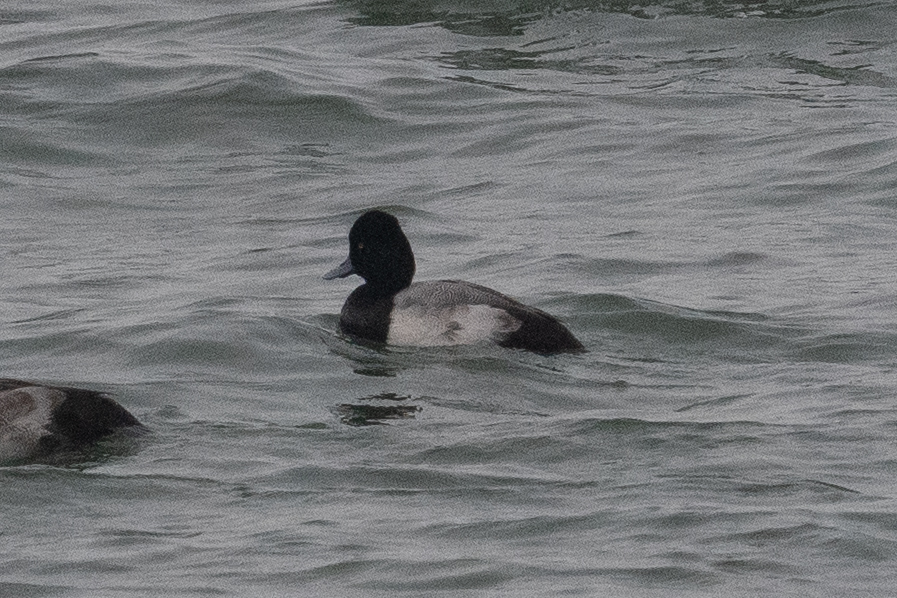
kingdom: Animalia
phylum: Chordata
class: Aves
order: Anseriformes
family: Anatidae
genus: Aythya
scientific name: Aythya affinis
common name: Lesser scaup
